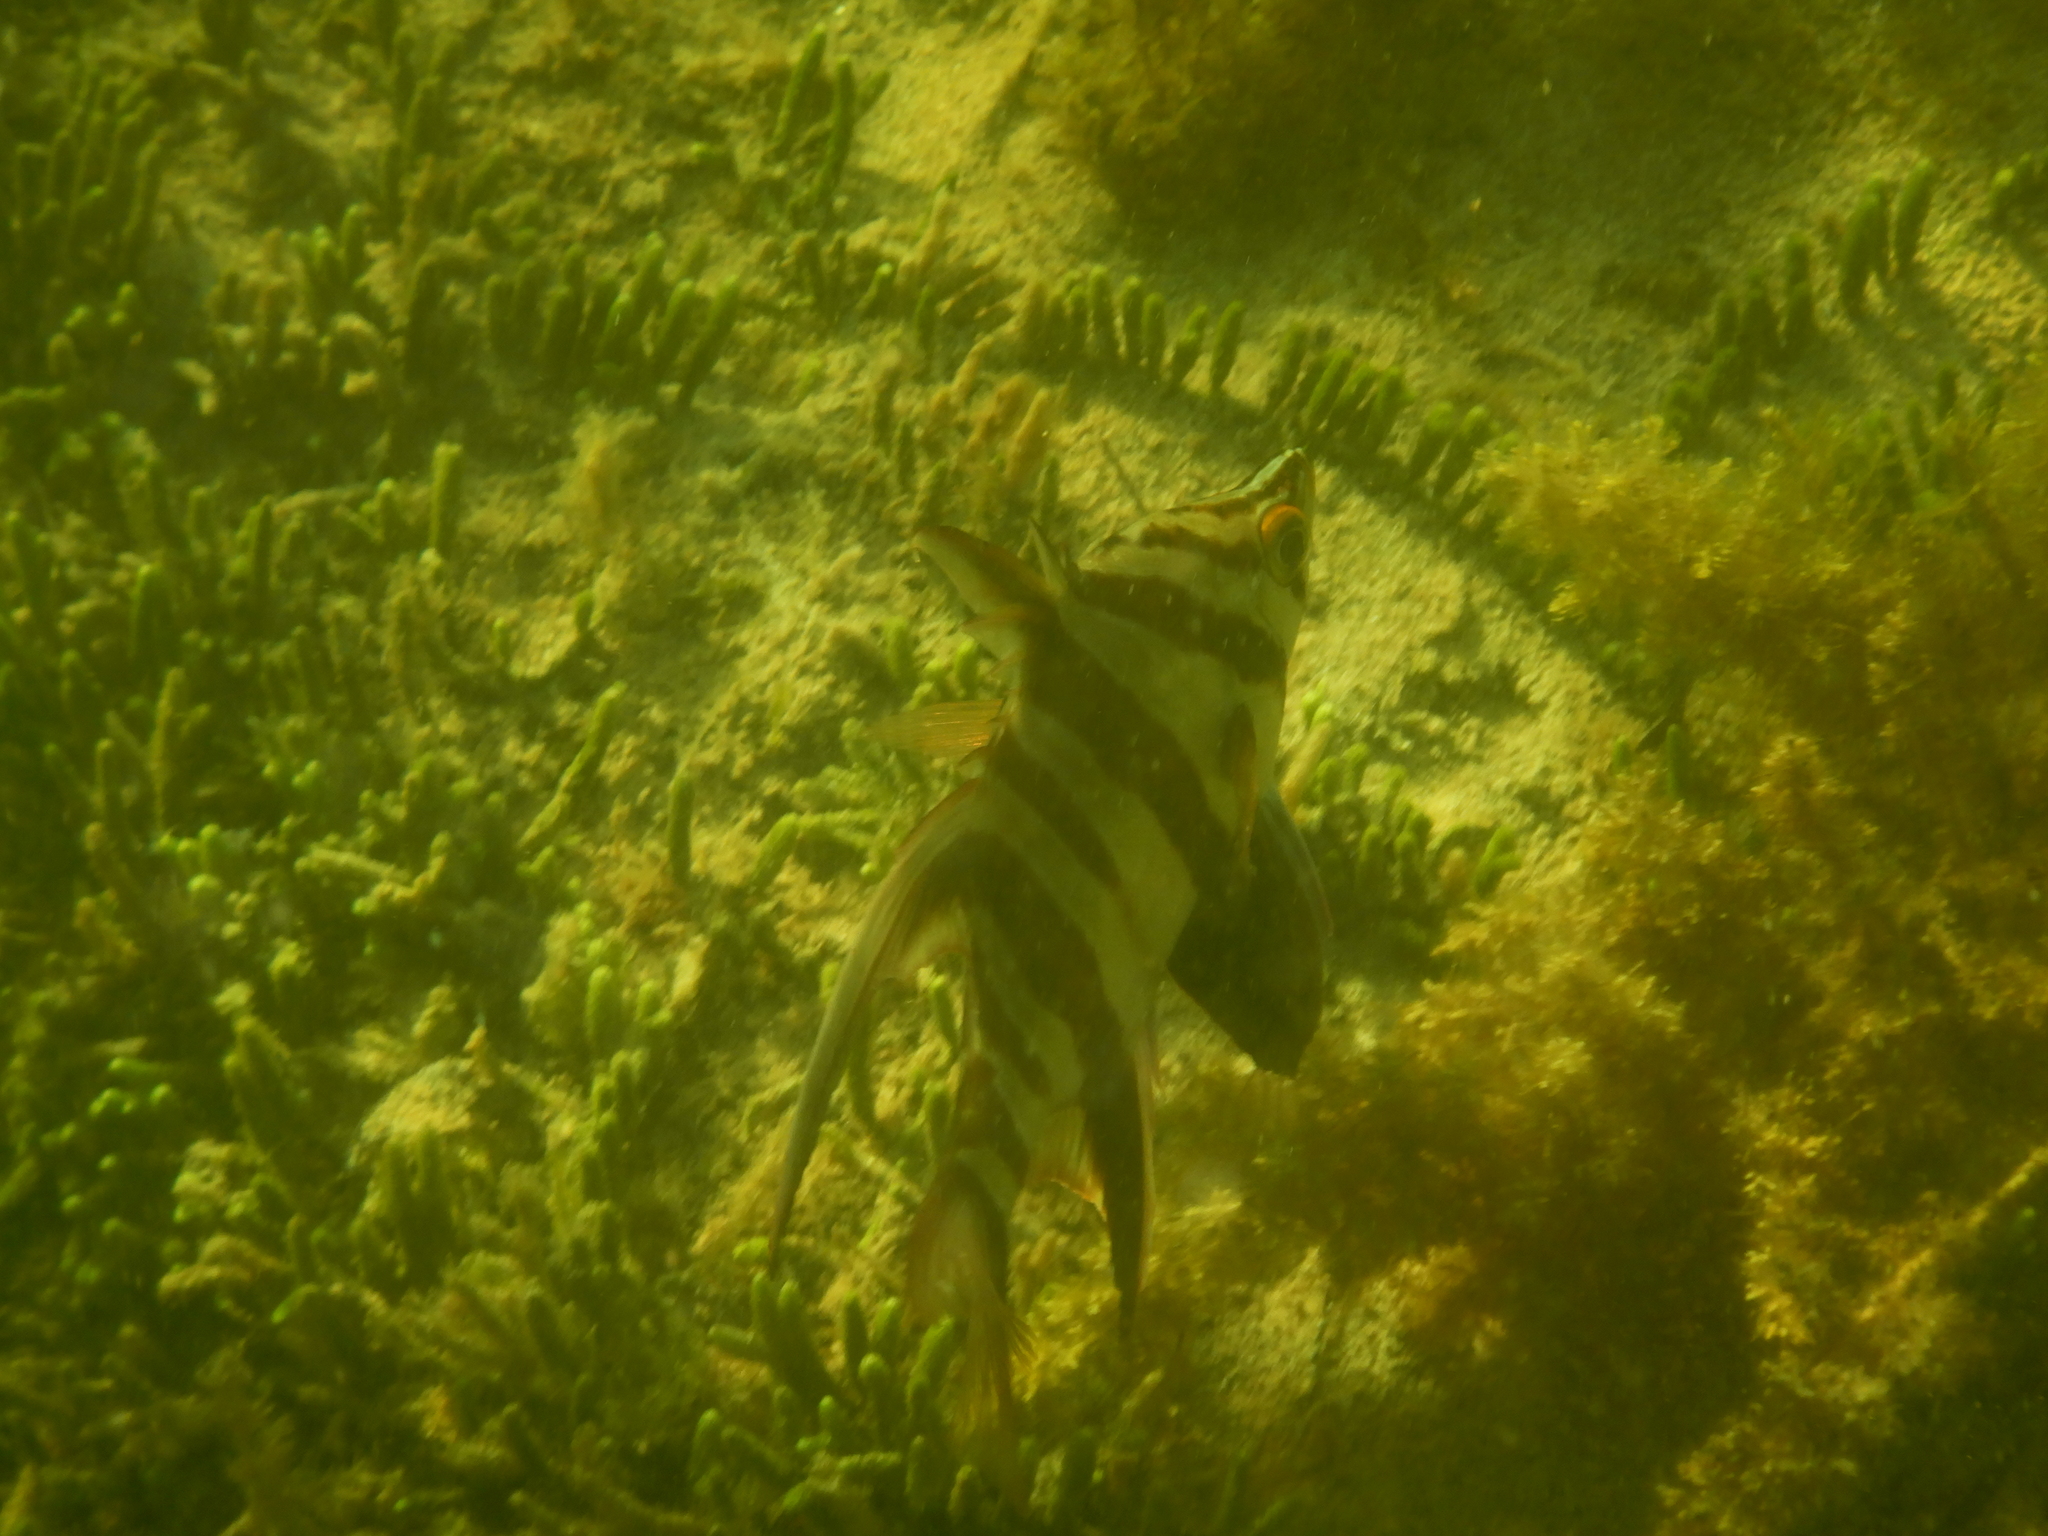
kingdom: Animalia
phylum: Chordata
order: Perciformes
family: Enoplosidae
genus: Enoplosus
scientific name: Enoplosus armatus
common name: Old wife
